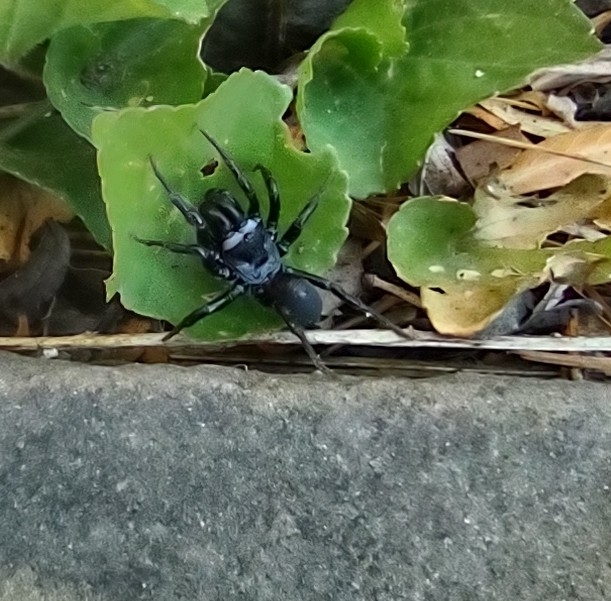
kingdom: Animalia
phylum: Arthropoda
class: Arachnida
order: Araneae
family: Atypidae
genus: Sphodros
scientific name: Sphodros niger
